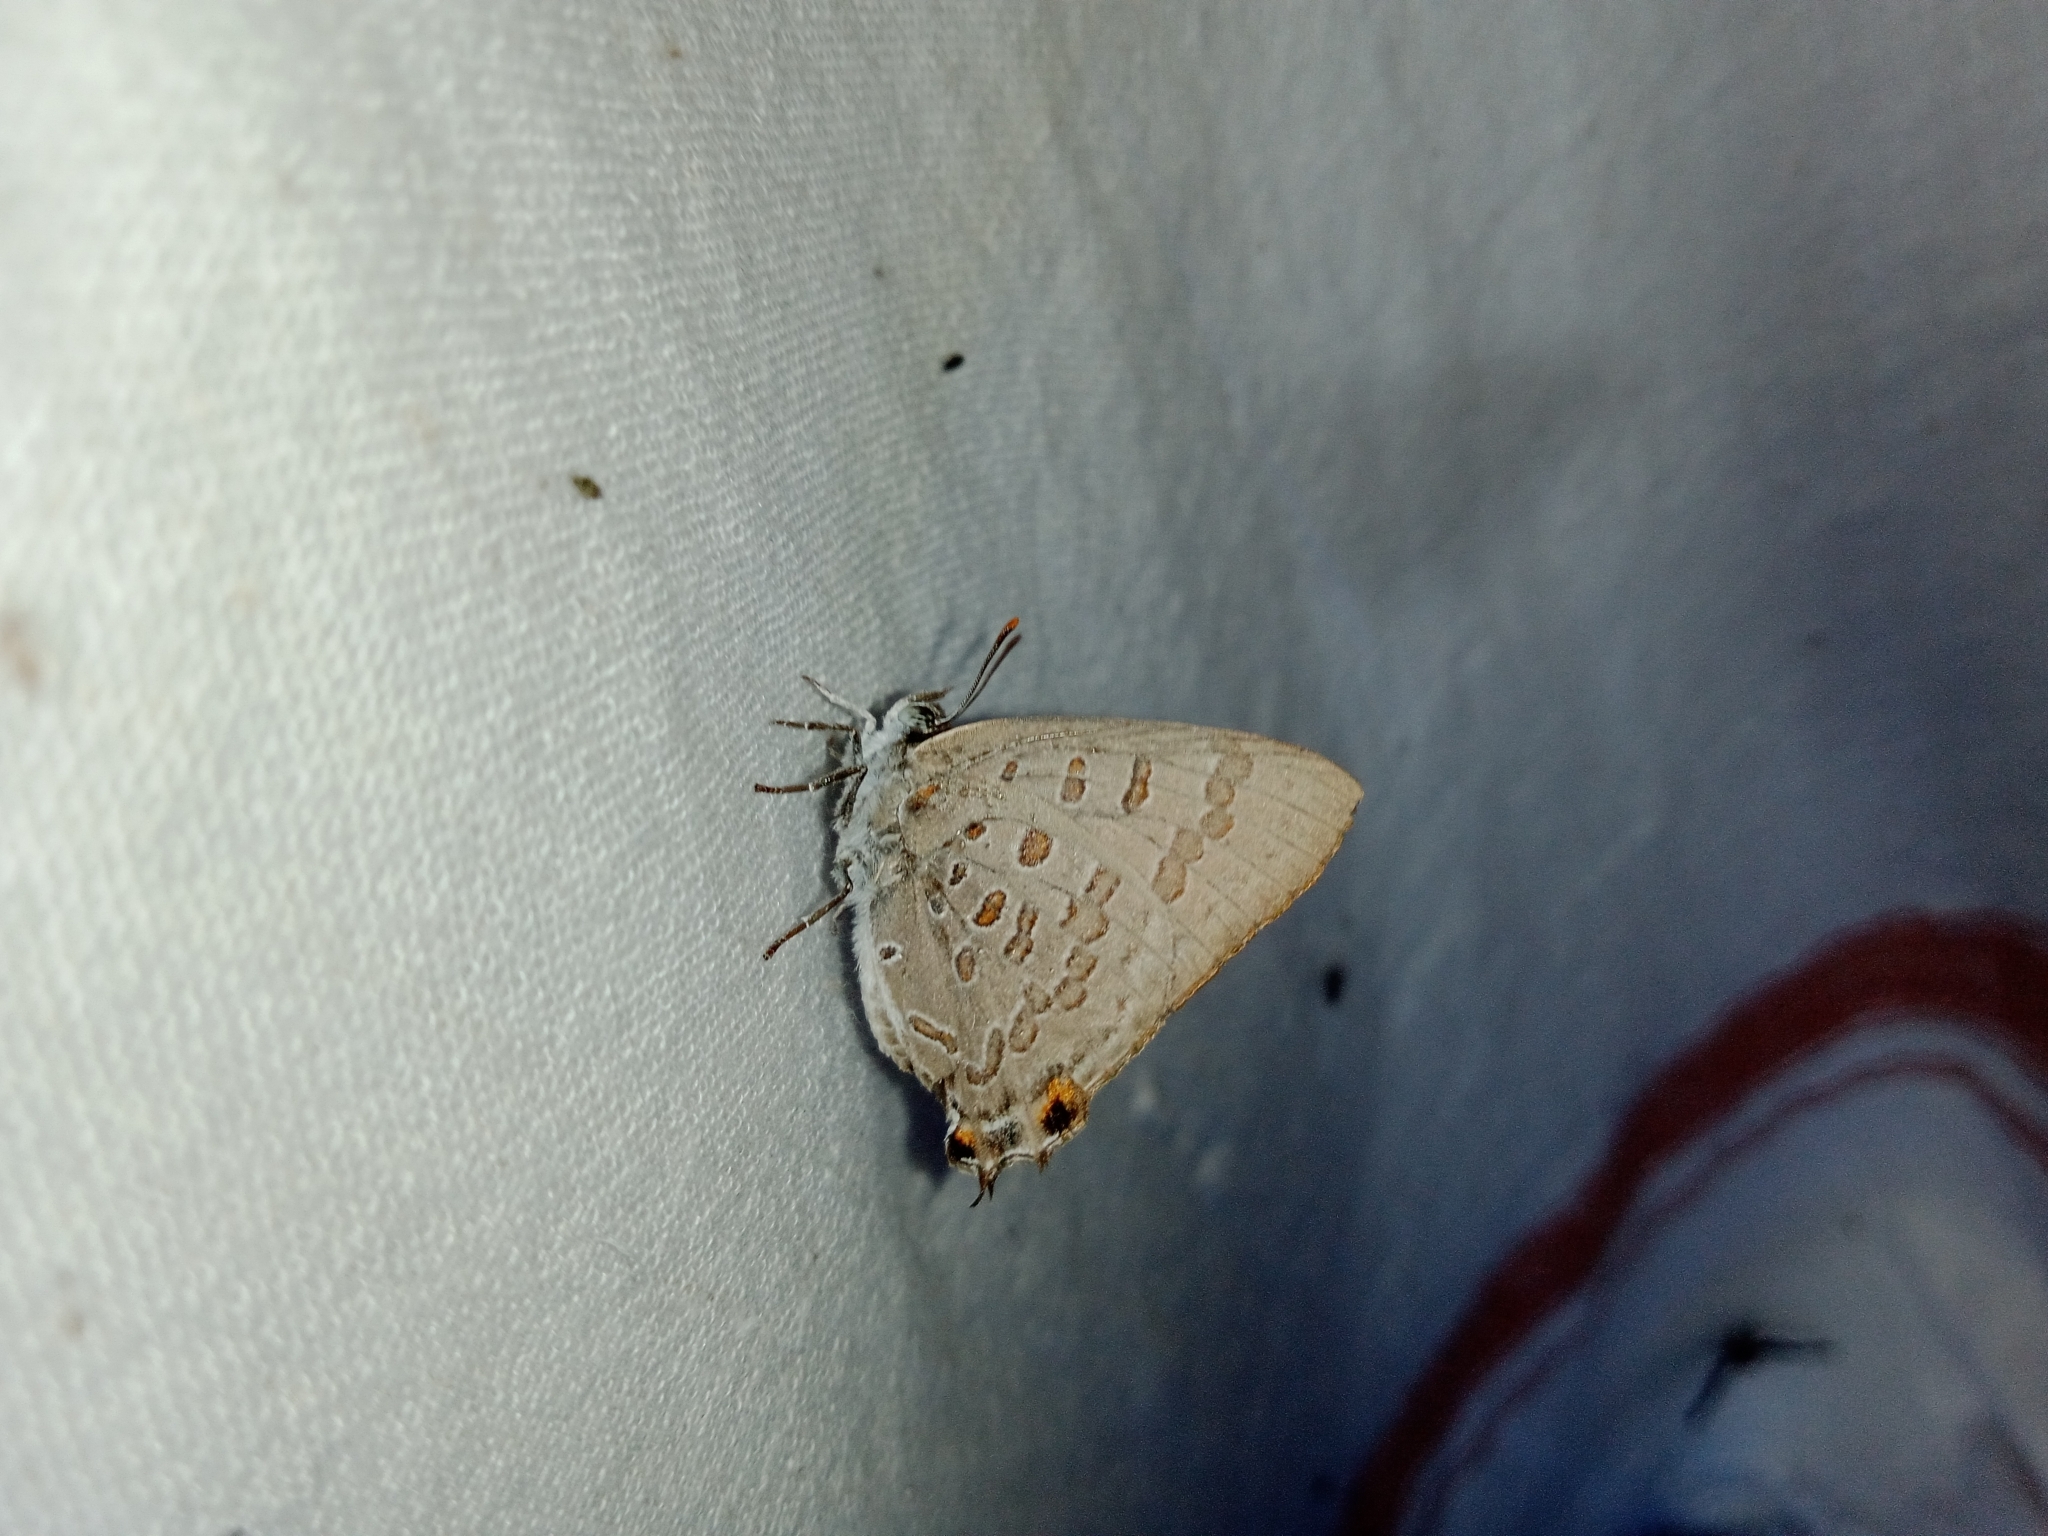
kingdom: Animalia
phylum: Arthropoda
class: Insecta
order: Lepidoptera
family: Lycaenidae
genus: Zesius
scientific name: Zesius chrysomallus
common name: Redspot
